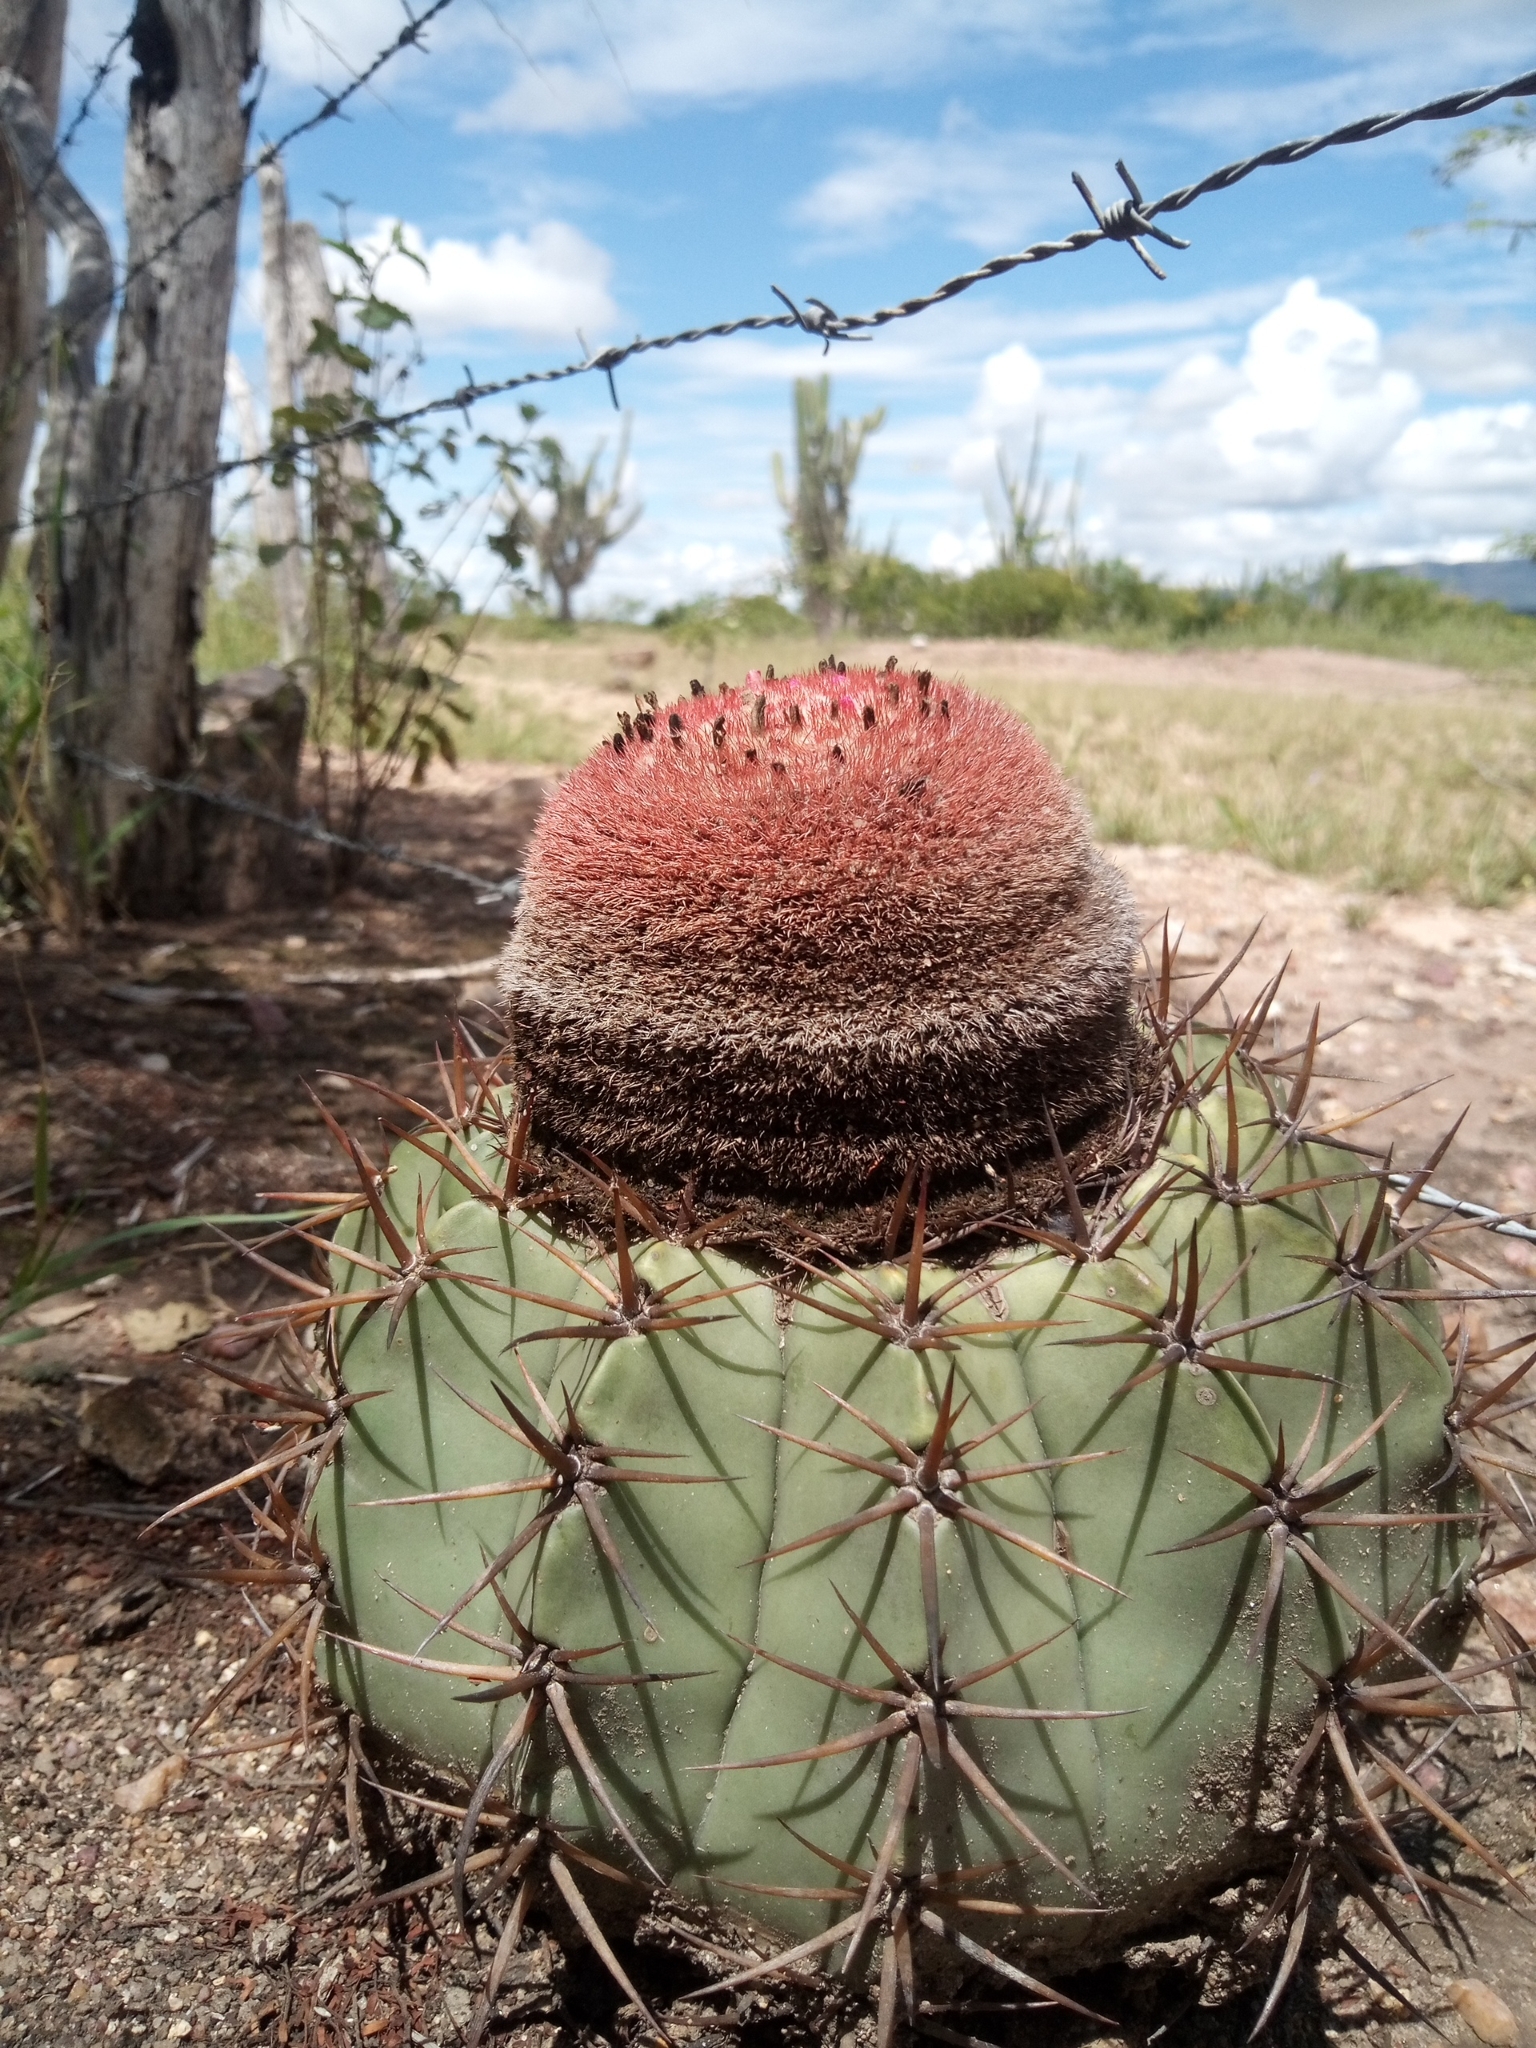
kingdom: Plantae
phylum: Tracheophyta
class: Magnoliopsida
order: Caryophyllales
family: Cactaceae
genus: Melocactus
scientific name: Melocactus bahiensis
